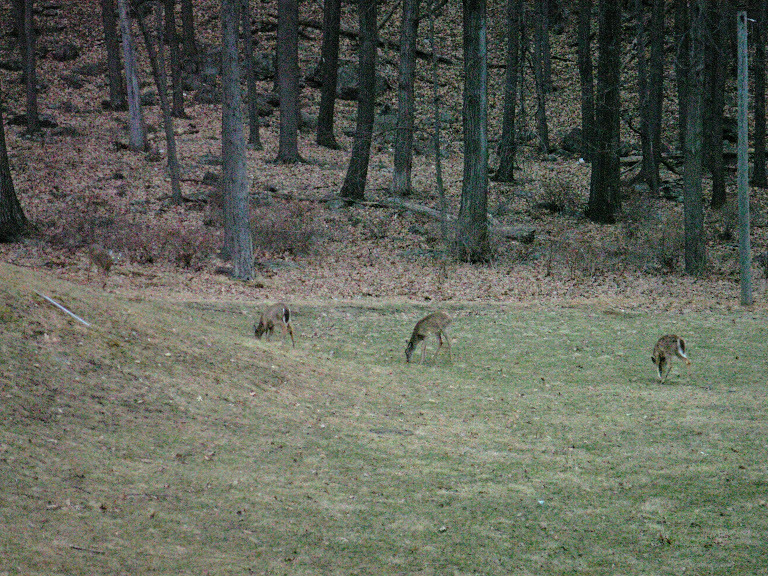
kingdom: Animalia
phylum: Chordata
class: Mammalia
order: Artiodactyla
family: Cervidae
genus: Odocoileus
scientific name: Odocoileus virginianus
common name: White-tailed deer
